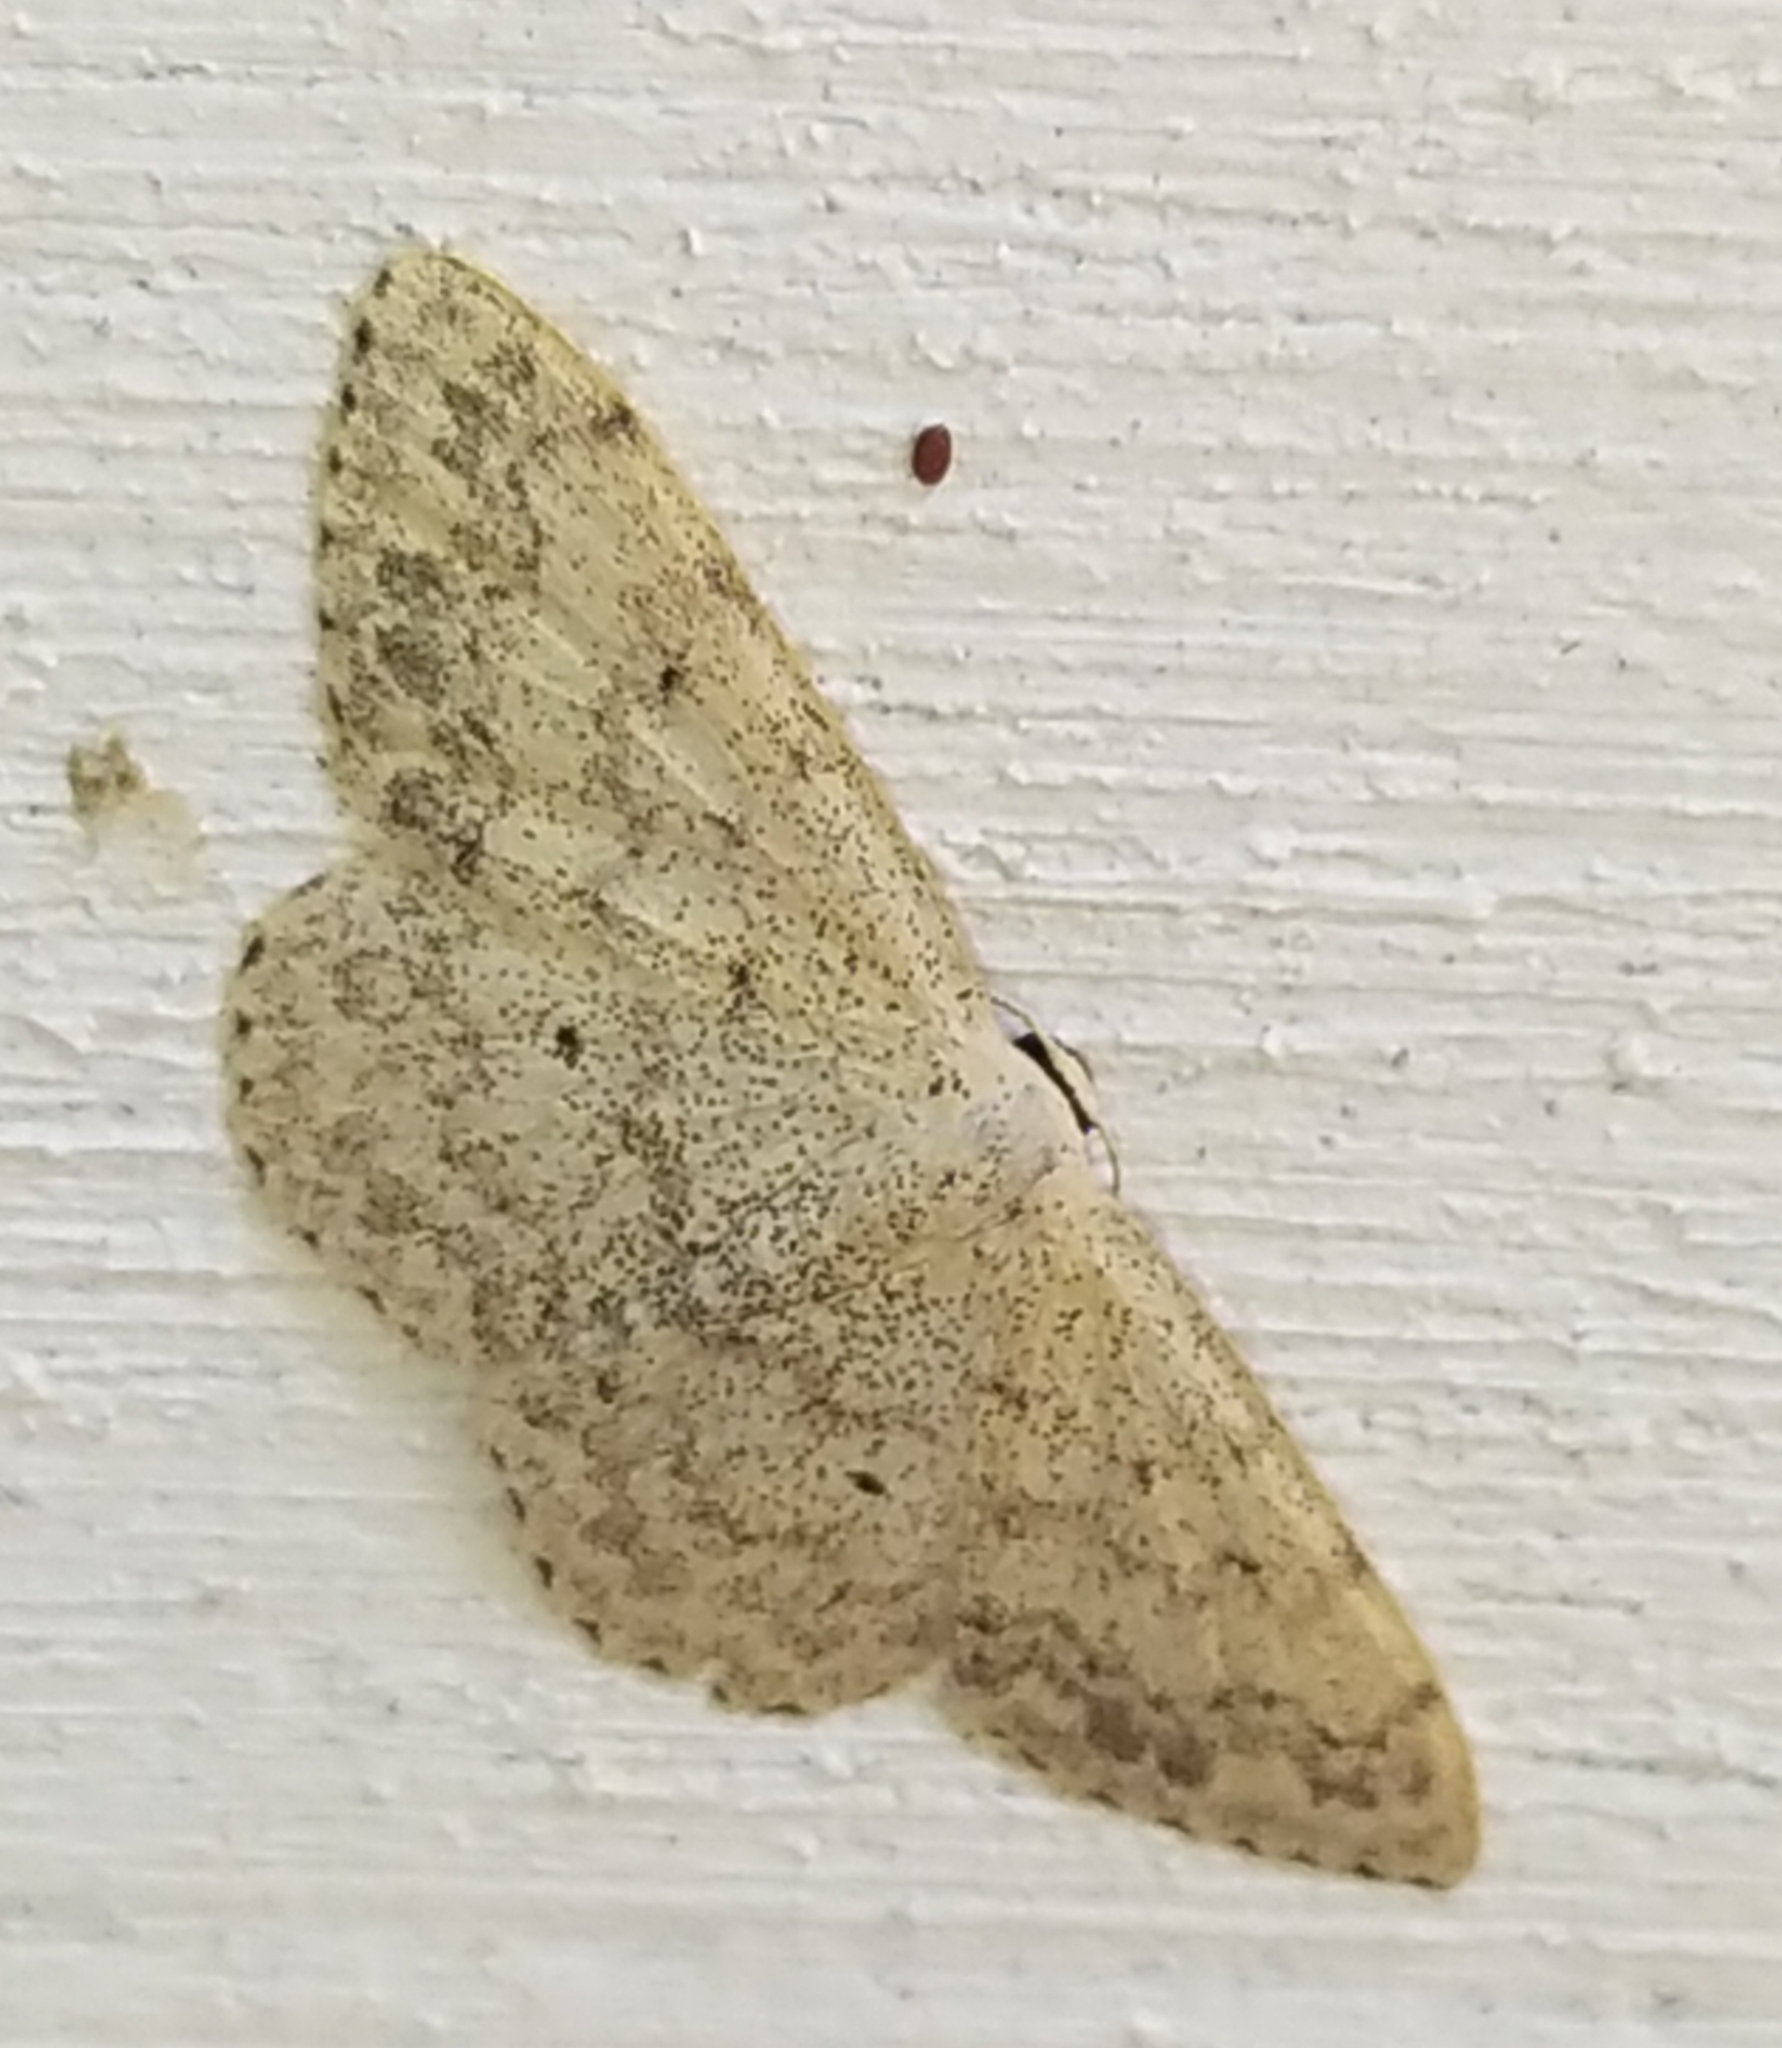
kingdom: Animalia
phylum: Arthropoda
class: Insecta
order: Lepidoptera
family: Geometridae
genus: Scopula
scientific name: Scopula marginepunctata
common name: Mullein wave
